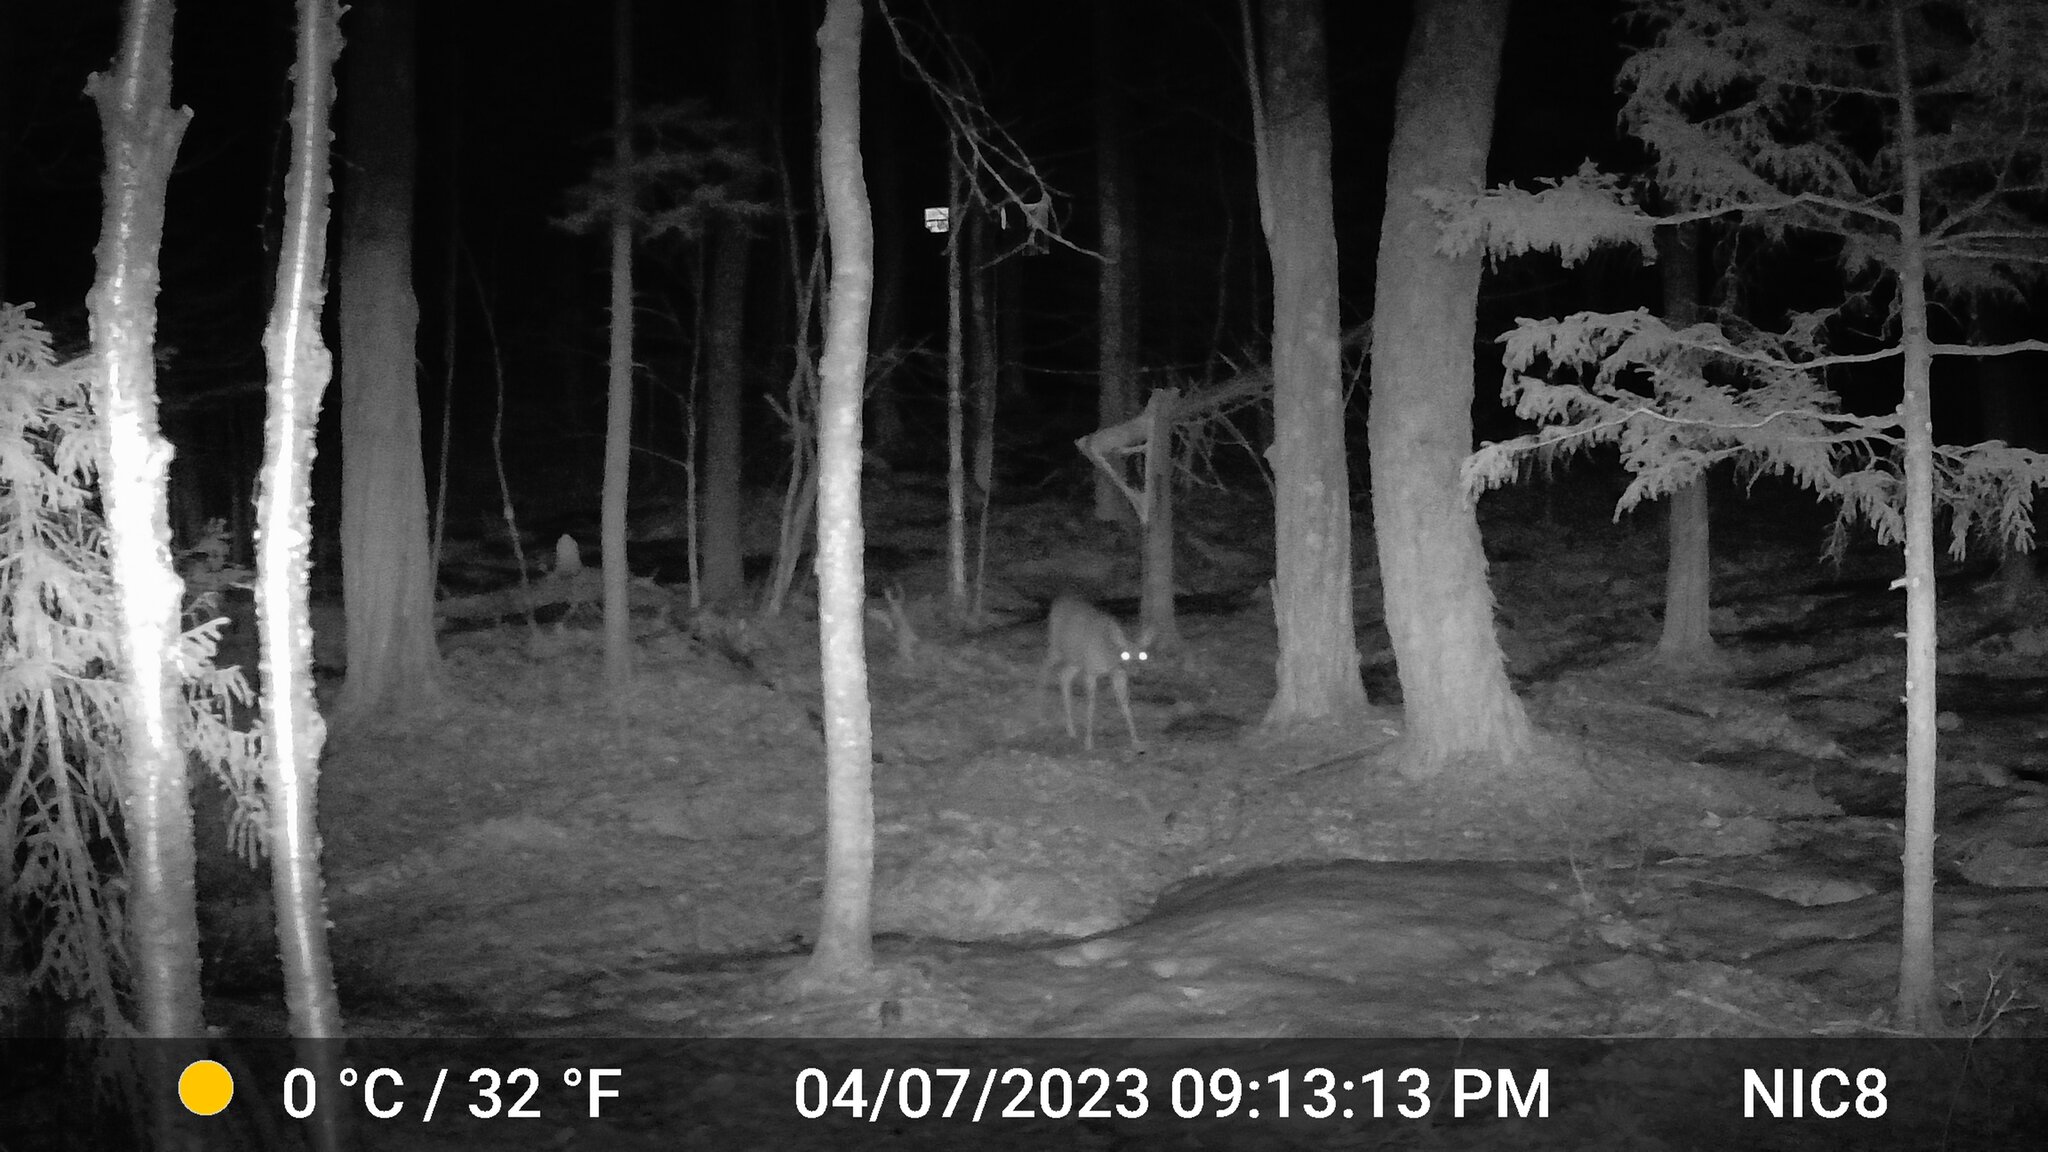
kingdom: Animalia
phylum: Chordata
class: Mammalia
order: Artiodactyla
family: Cervidae
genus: Odocoileus
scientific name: Odocoileus virginianus
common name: White-tailed deer
